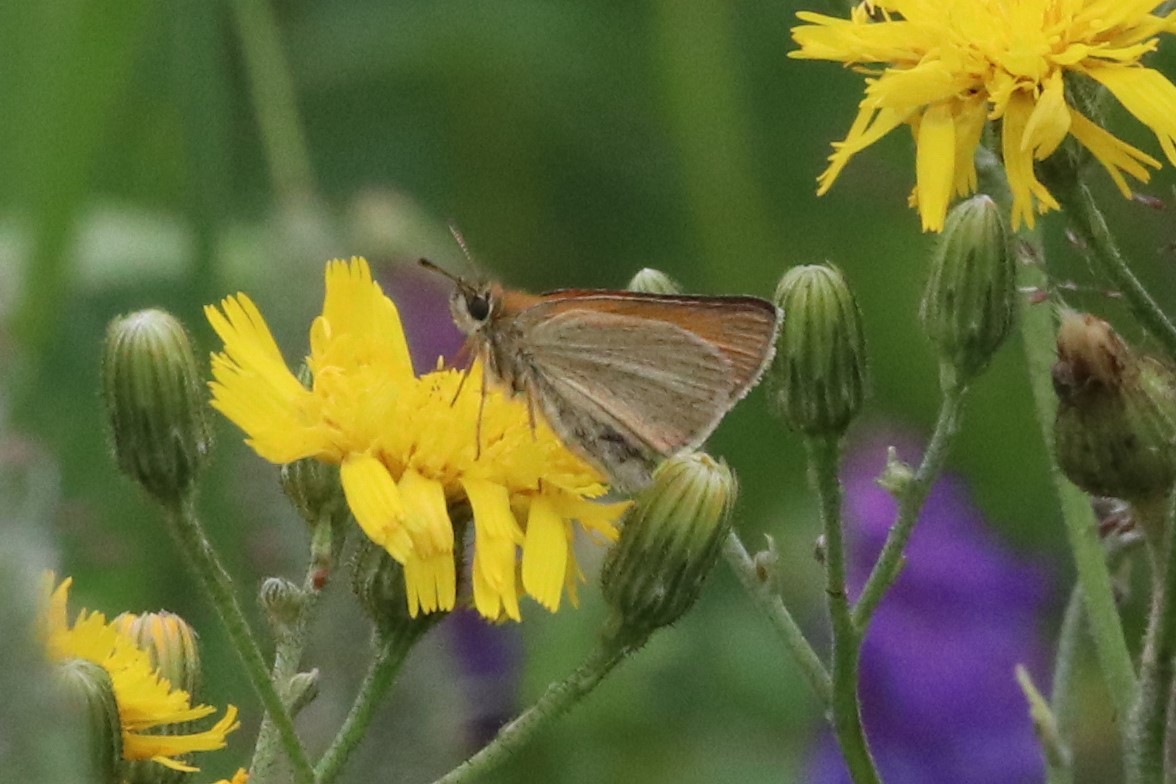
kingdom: Animalia
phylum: Arthropoda
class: Insecta
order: Lepidoptera
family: Hesperiidae
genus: Thymelicus
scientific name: Thymelicus lineola
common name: Essex skipper
